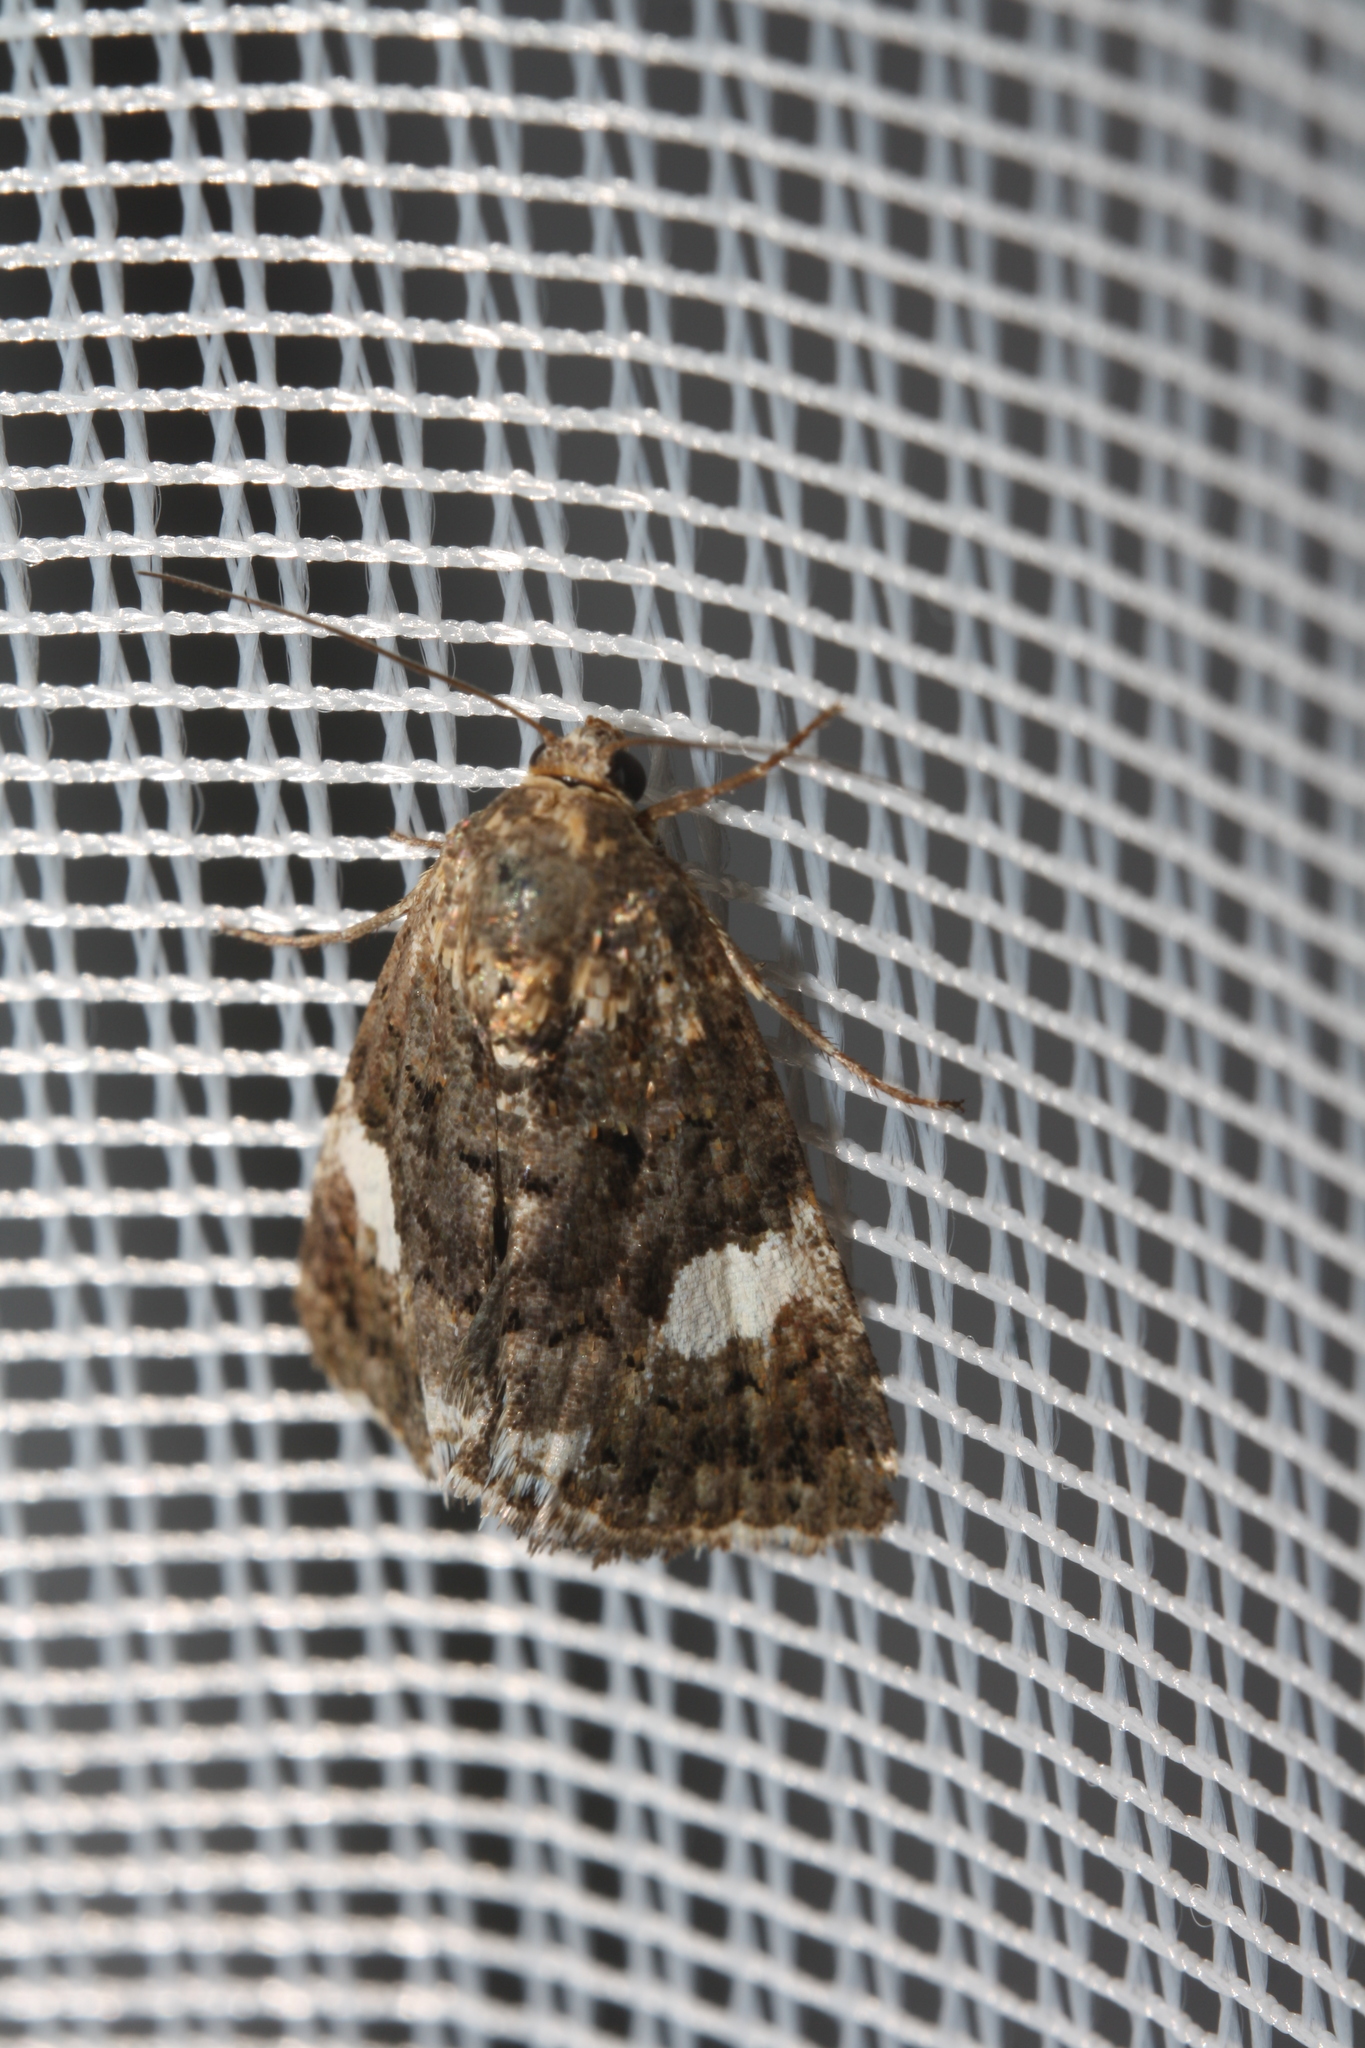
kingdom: Animalia
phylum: Arthropoda
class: Insecta
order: Lepidoptera
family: Erebidae
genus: Tyta
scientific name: Tyta luctuosa
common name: Four-spotted
